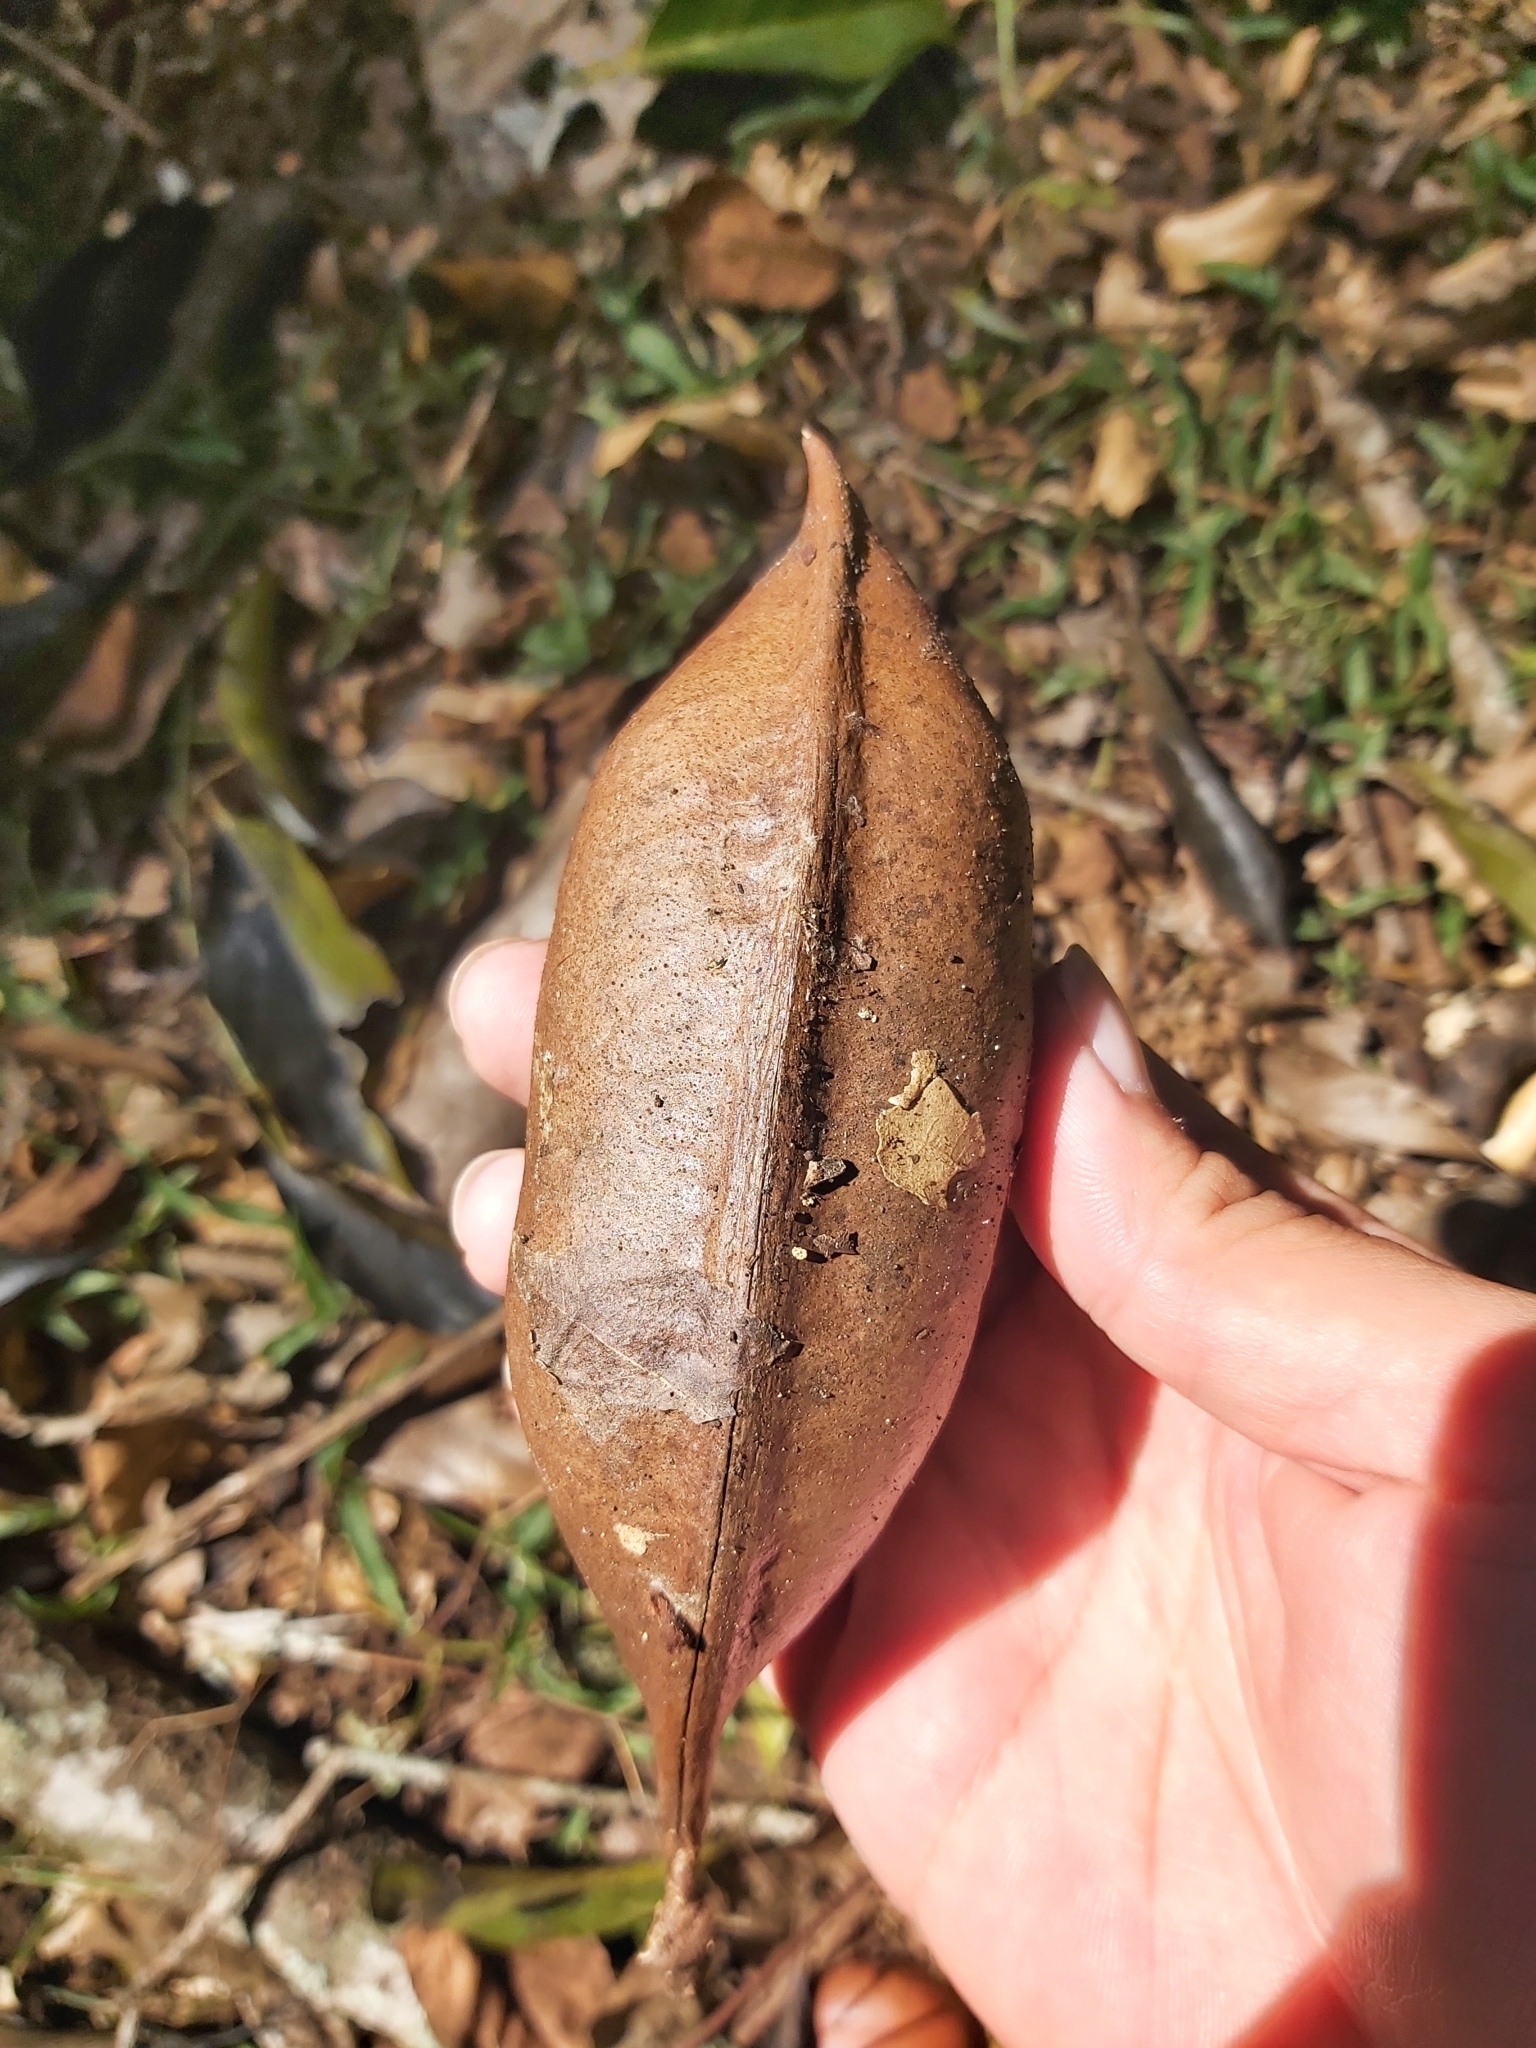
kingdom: Plantae
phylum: Tracheophyta
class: Magnoliopsida
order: Fabales
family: Fabaceae
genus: Castanospermum
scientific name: Castanospermum australe
